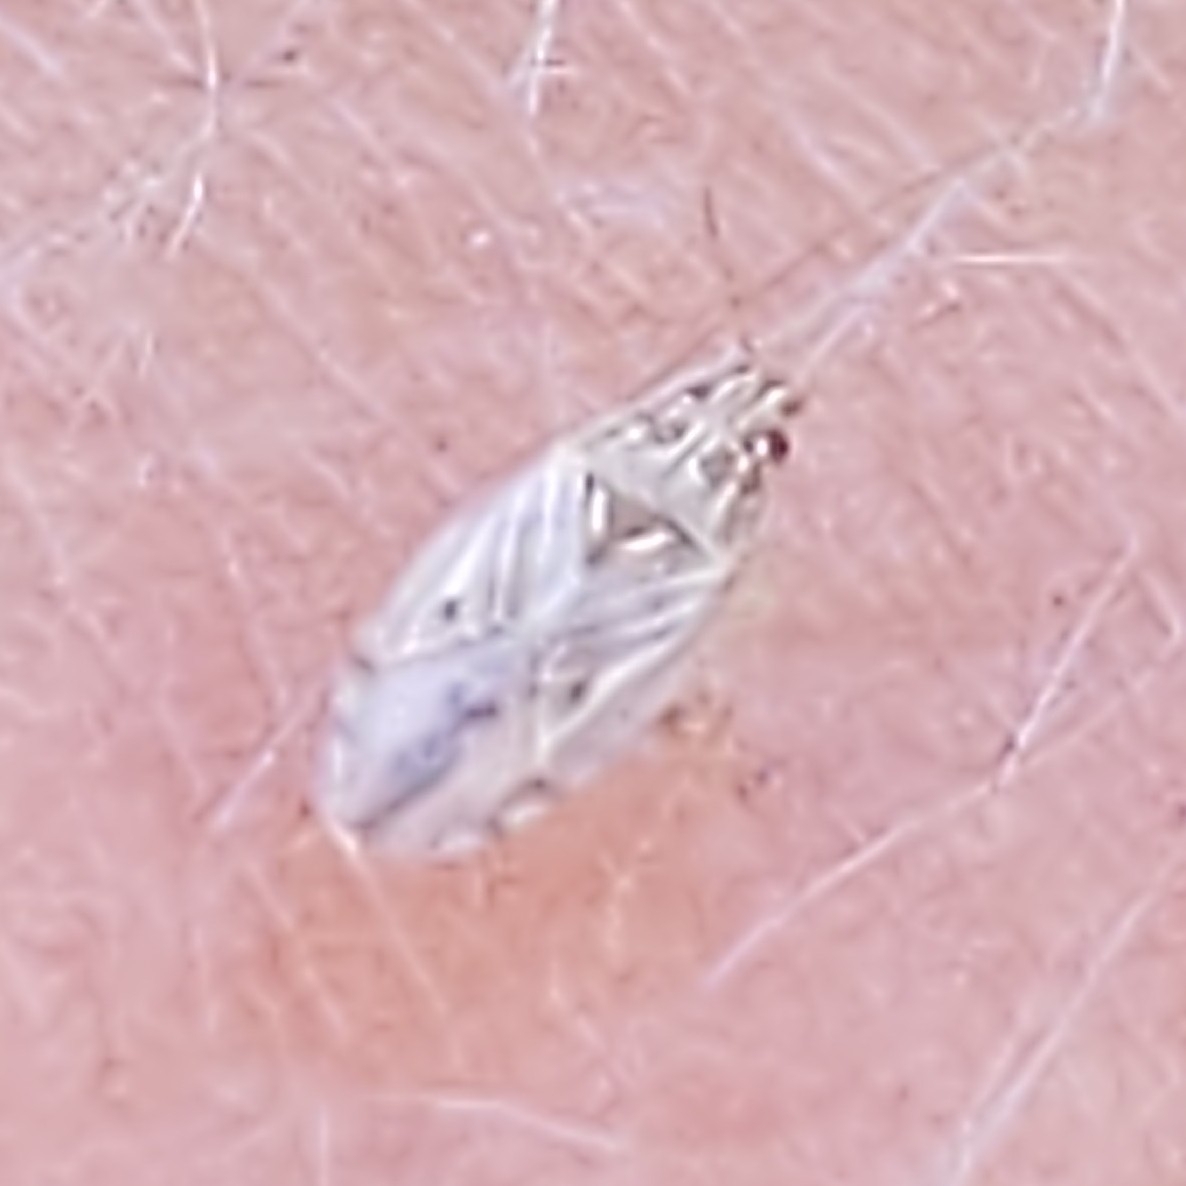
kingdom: Animalia
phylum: Arthropoda
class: Insecta
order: Hemiptera
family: Artheneidae
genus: Holcocranum
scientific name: Holcocranum saturejae
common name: Cattail bug
